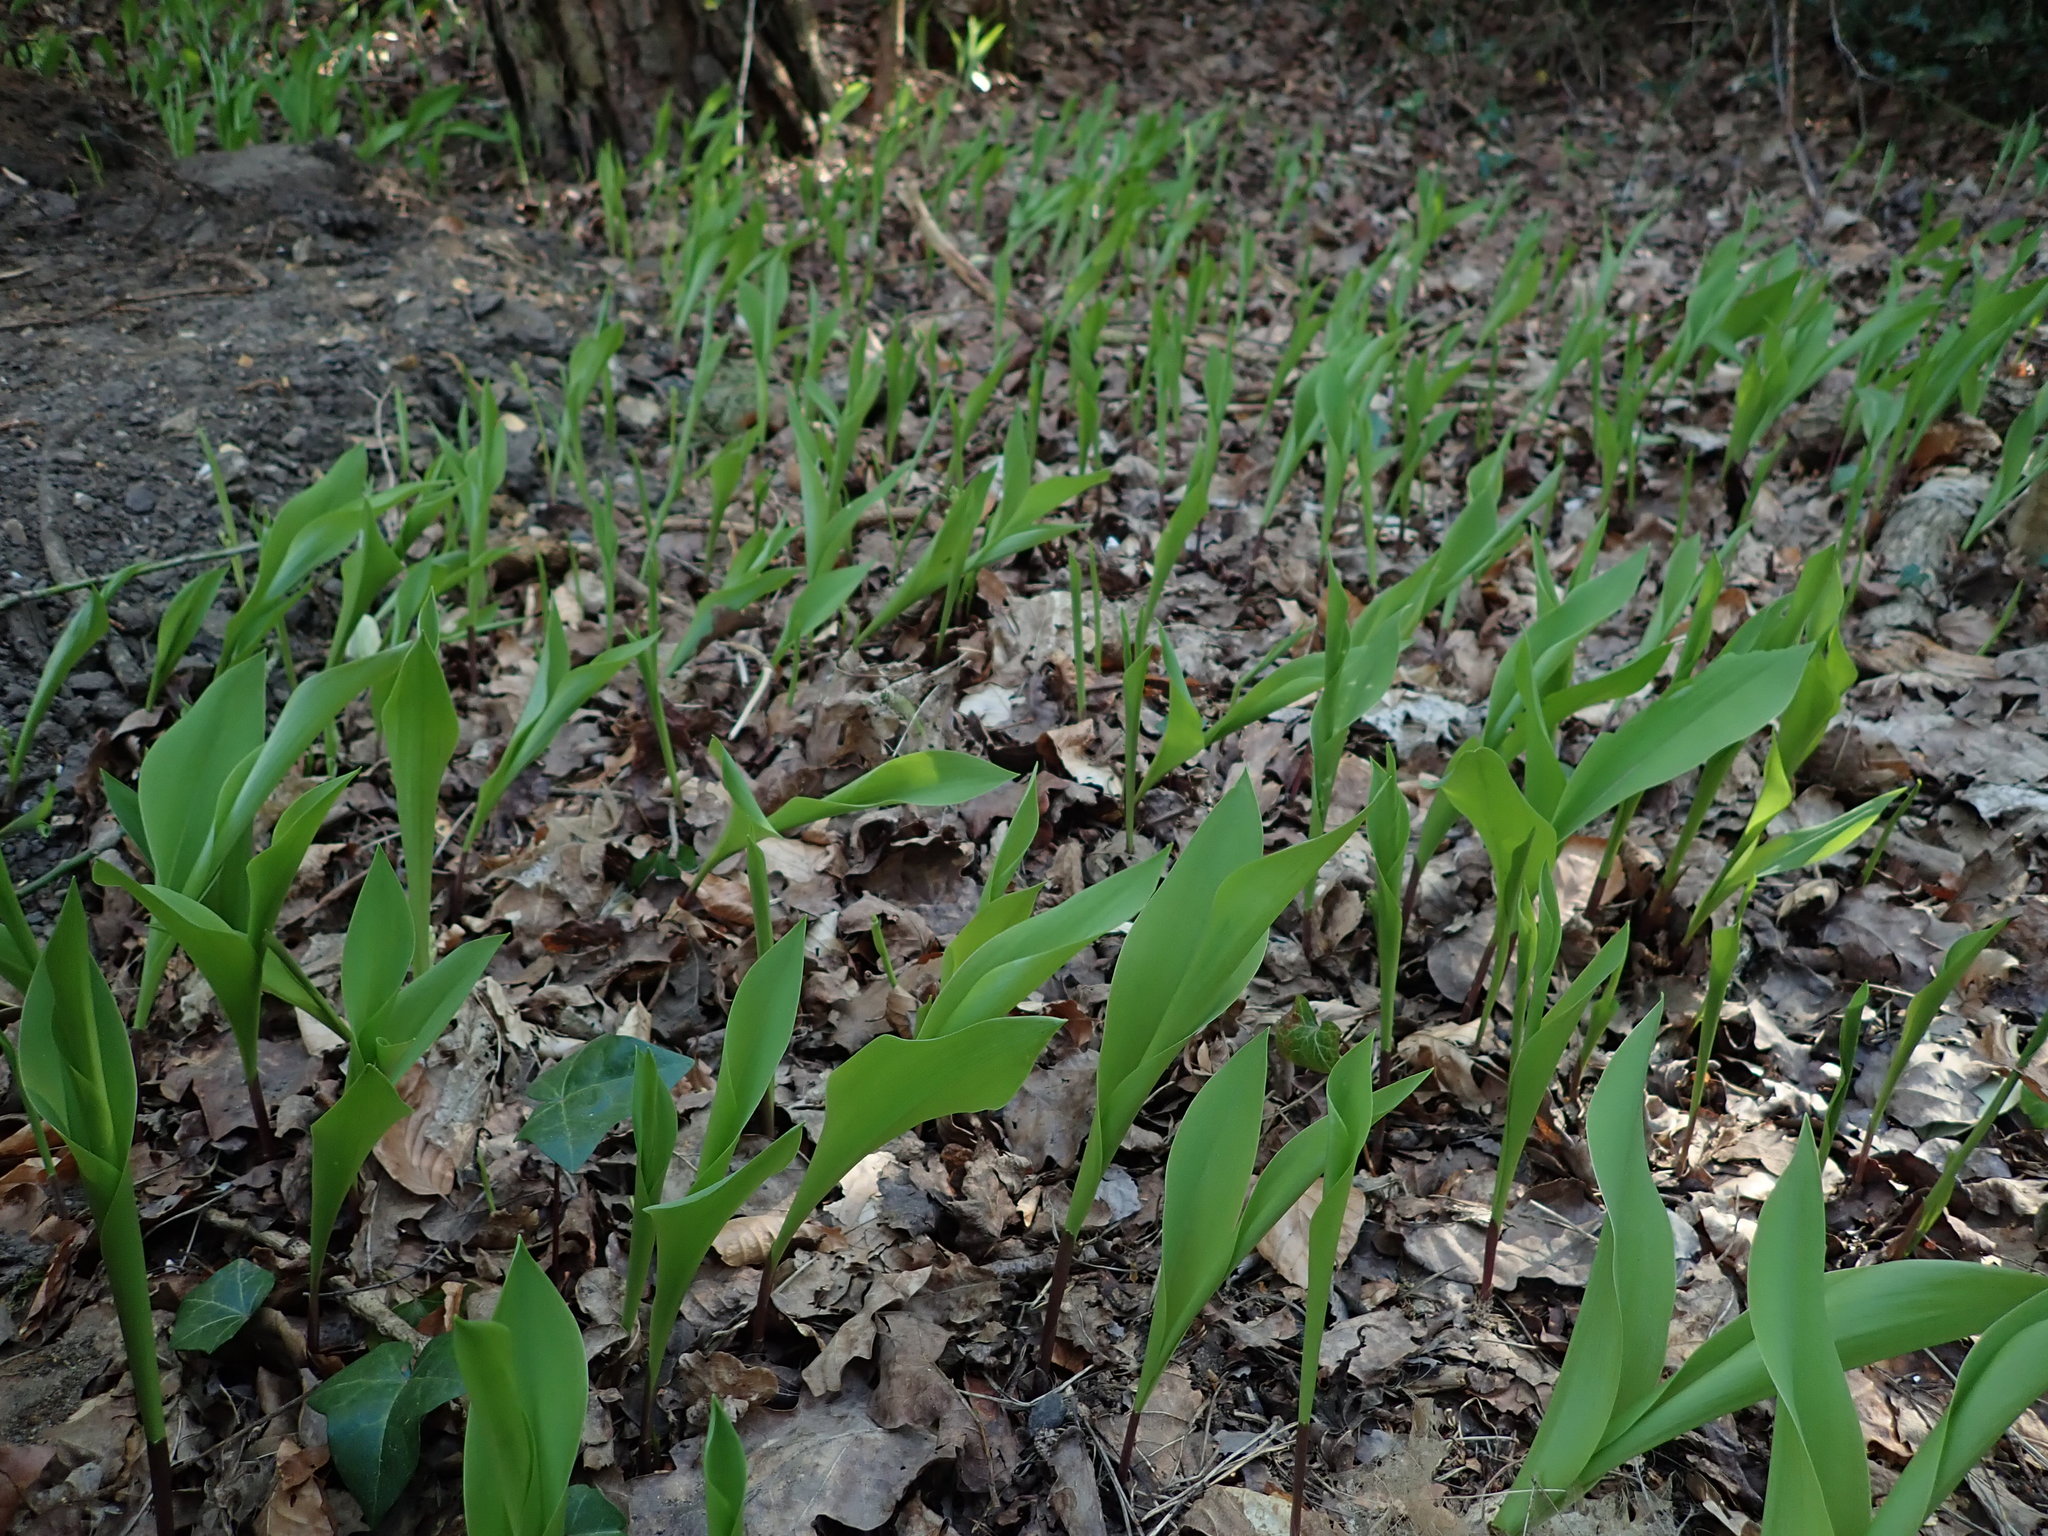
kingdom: Plantae
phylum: Tracheophyta
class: Liliopsida
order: Asparagales
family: Asparagaceae
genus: Convallaria
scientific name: Convallaria majalis
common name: Lily-of-the-valley
